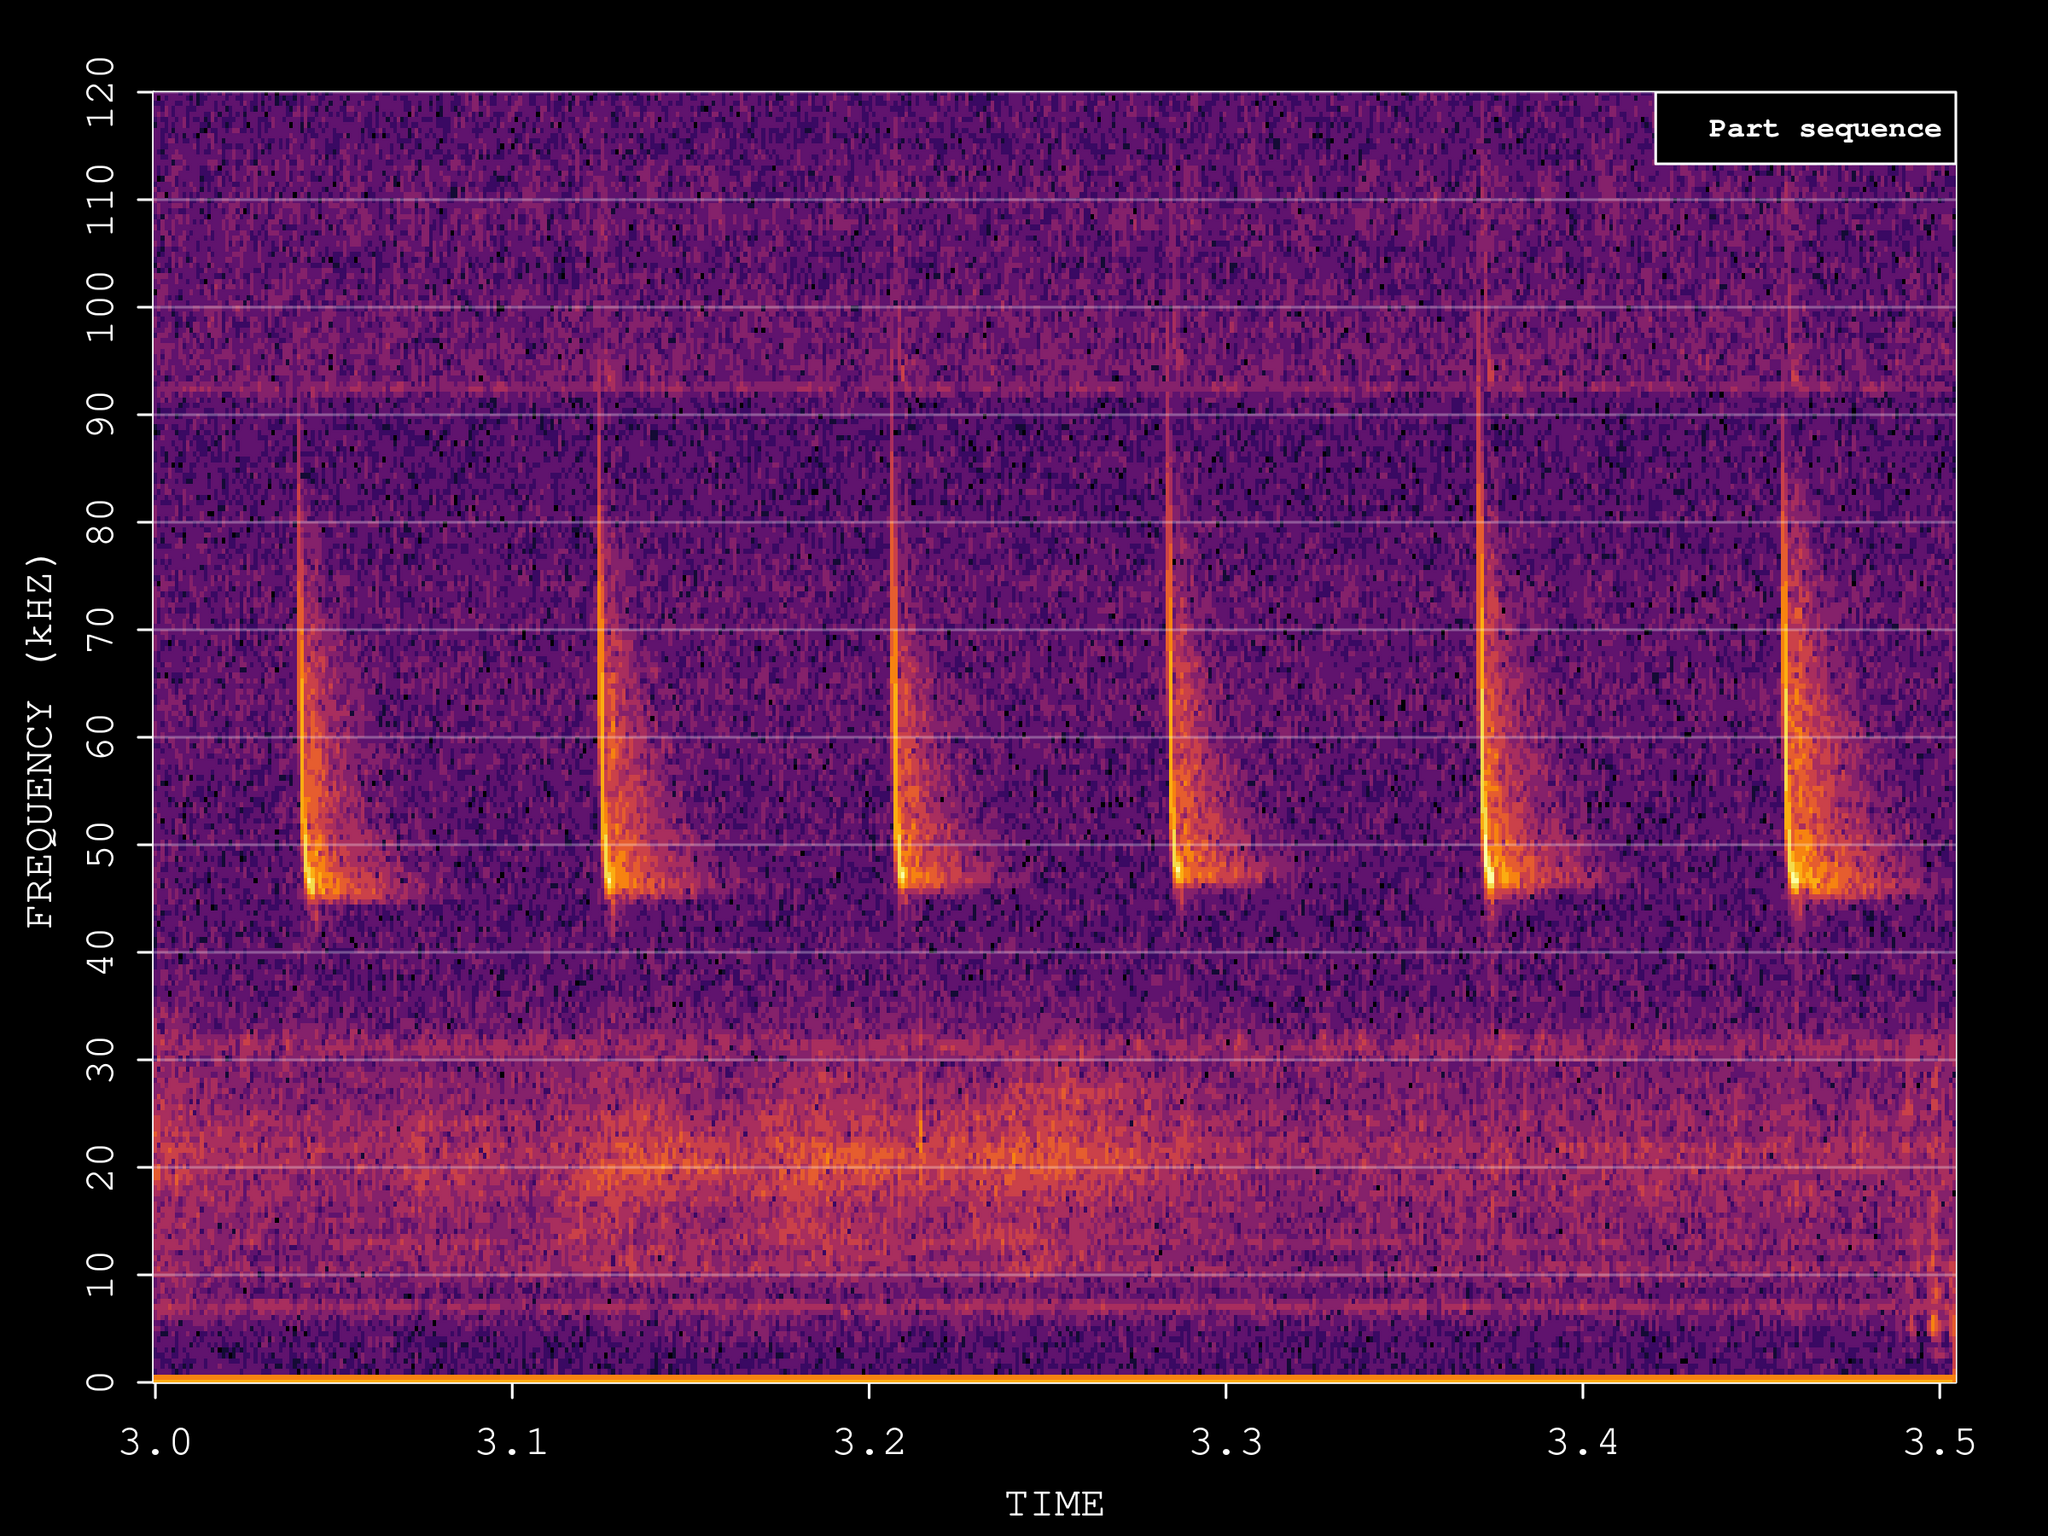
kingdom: Animalia
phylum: Chordata
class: Mammalia
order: Chiroptera
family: Vespertilionidae
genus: Pipistrellus
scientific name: Pipistrellus pipistrellus
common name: Common pipistrelle
